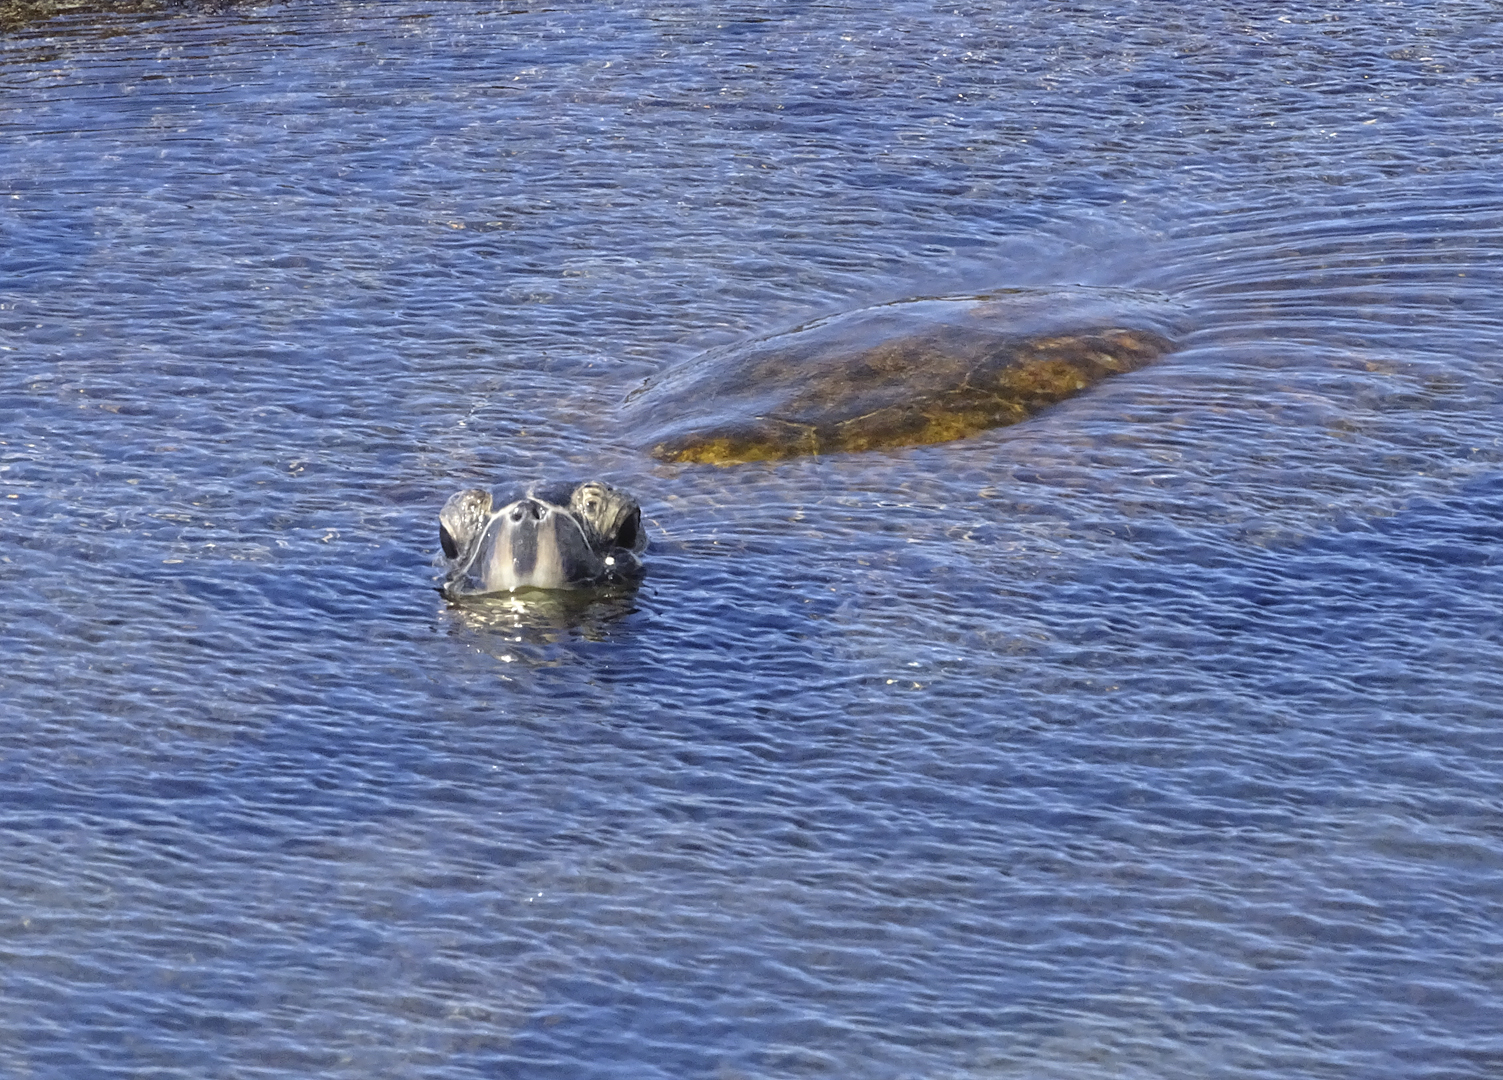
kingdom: Animalia
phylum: Chordata
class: Testudines
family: Cheloniidae
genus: Chelonia
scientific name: Chelonia mydas
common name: Green turtle
